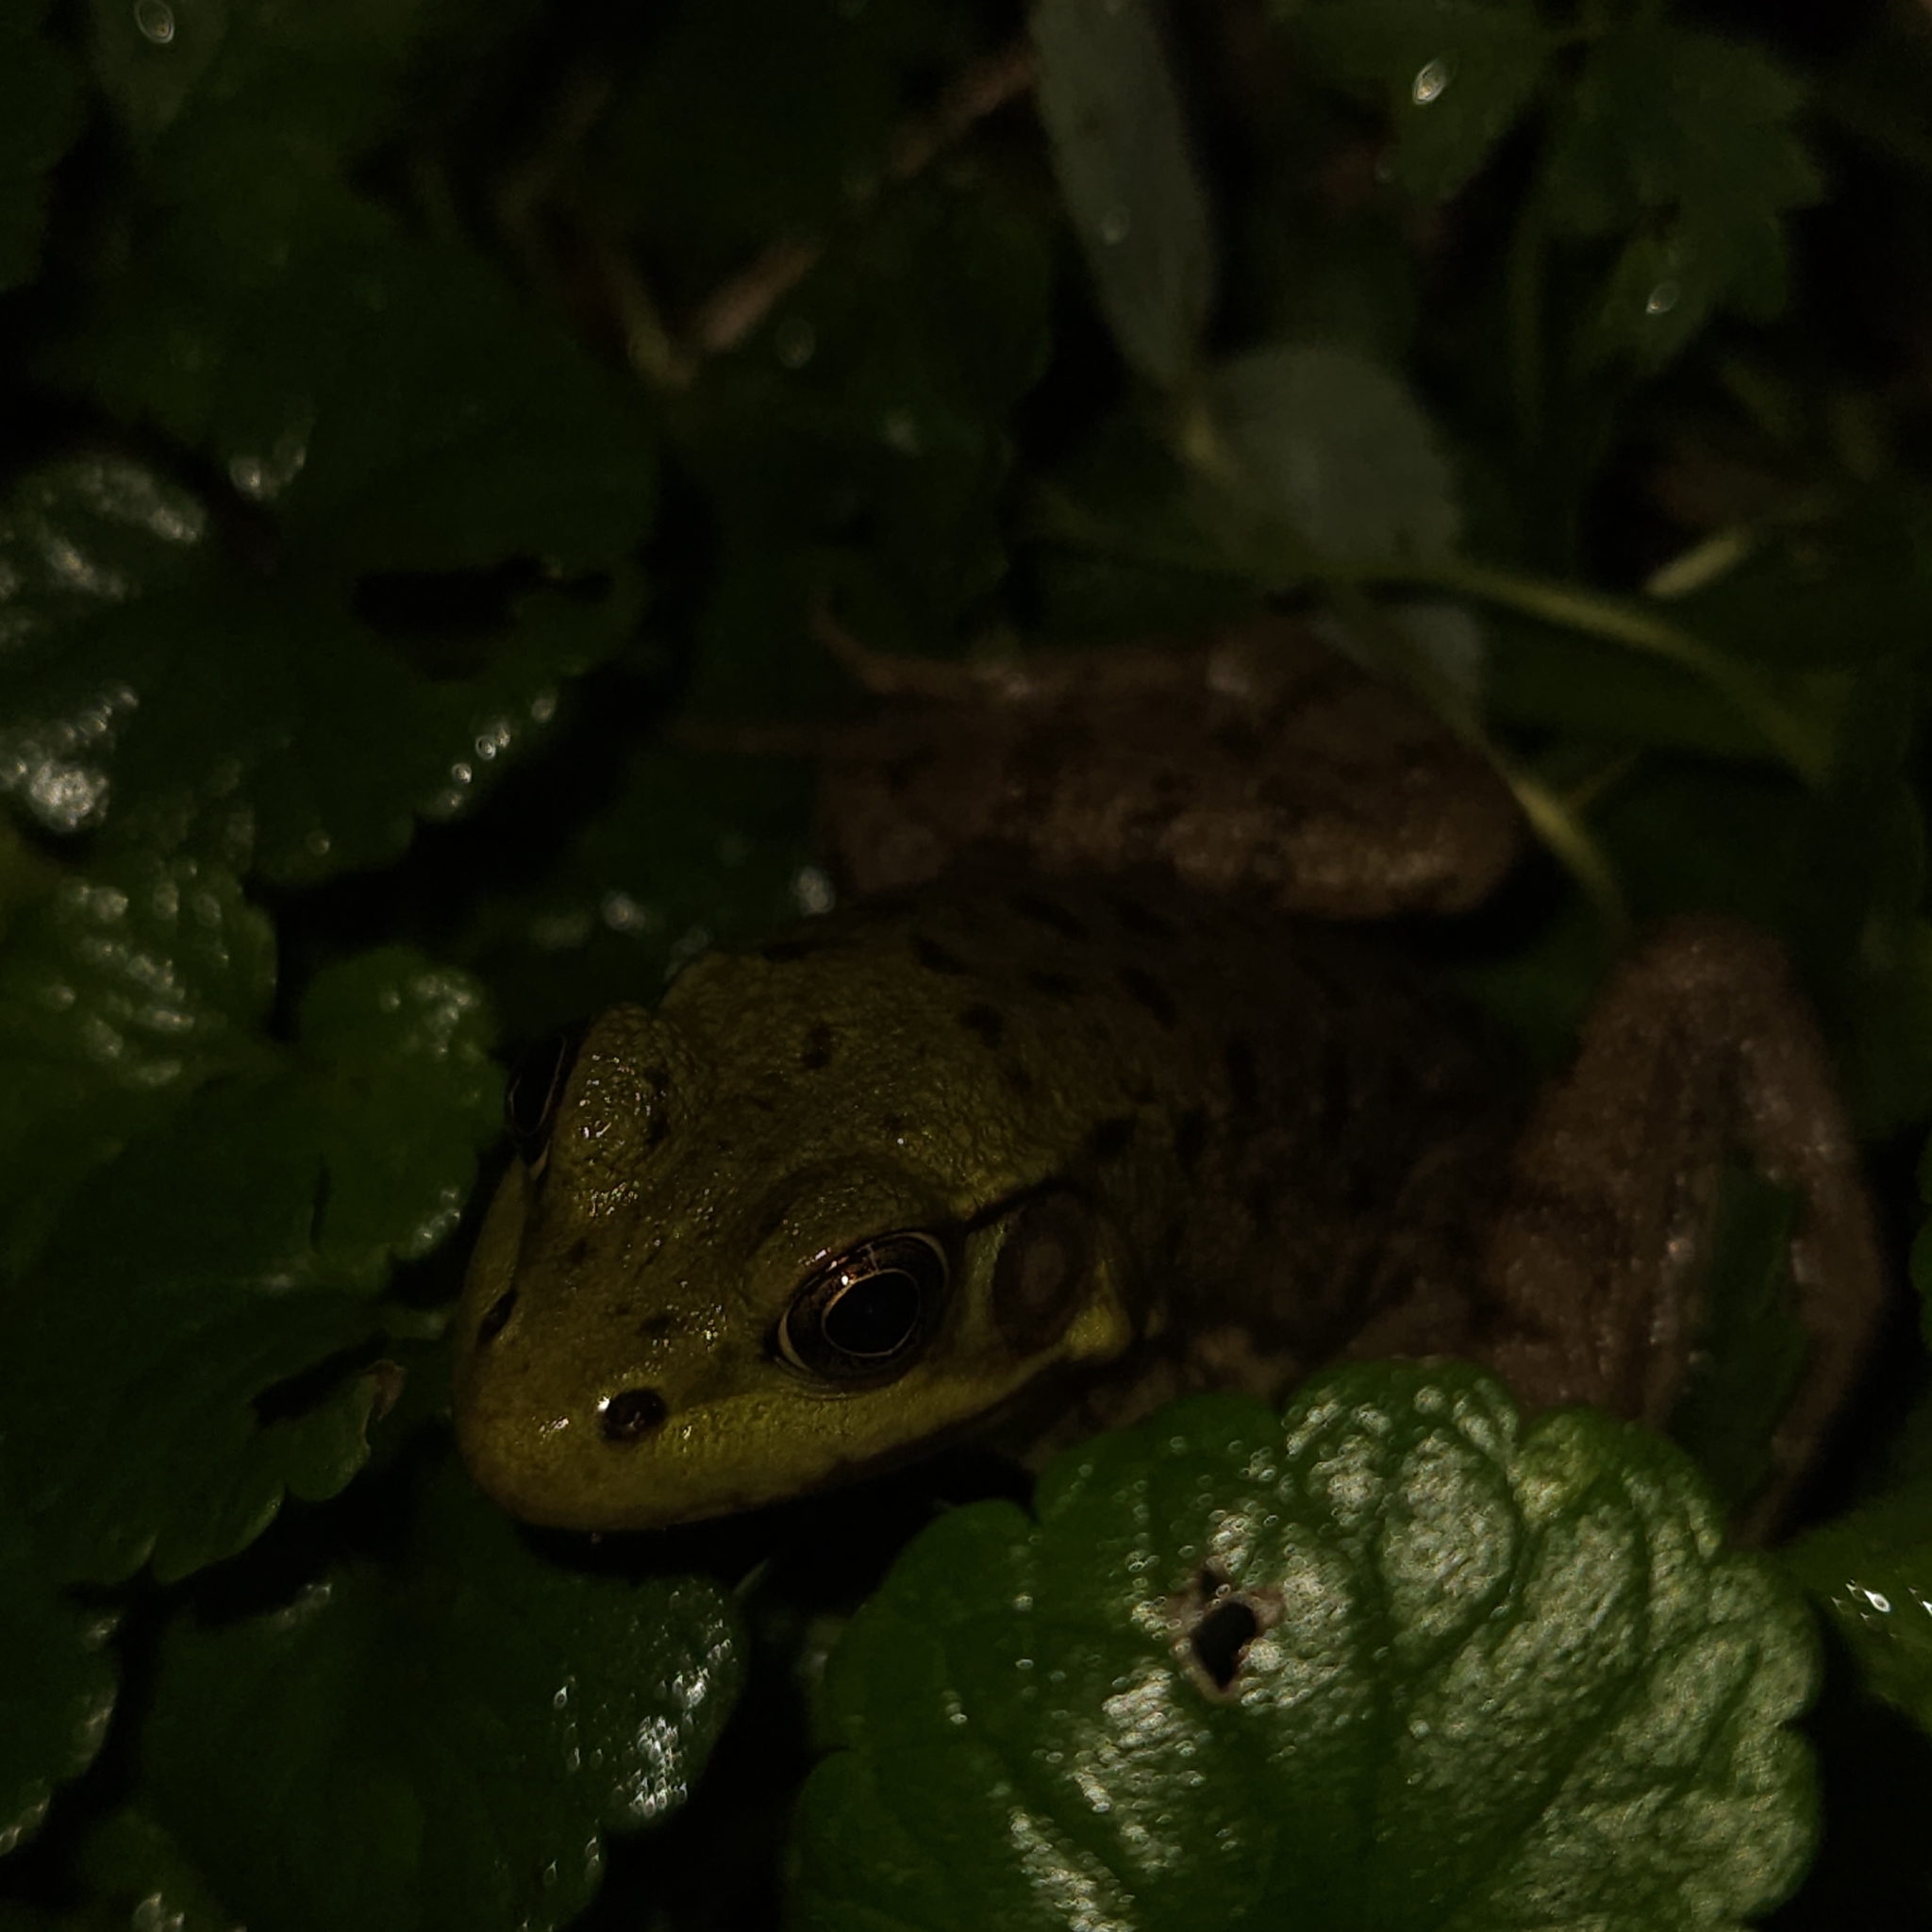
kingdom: Animalia
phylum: Chordata
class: Amphibia
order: Anura
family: Ranidae
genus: Lithobates
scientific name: Lithobates clamitans
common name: Green frog
